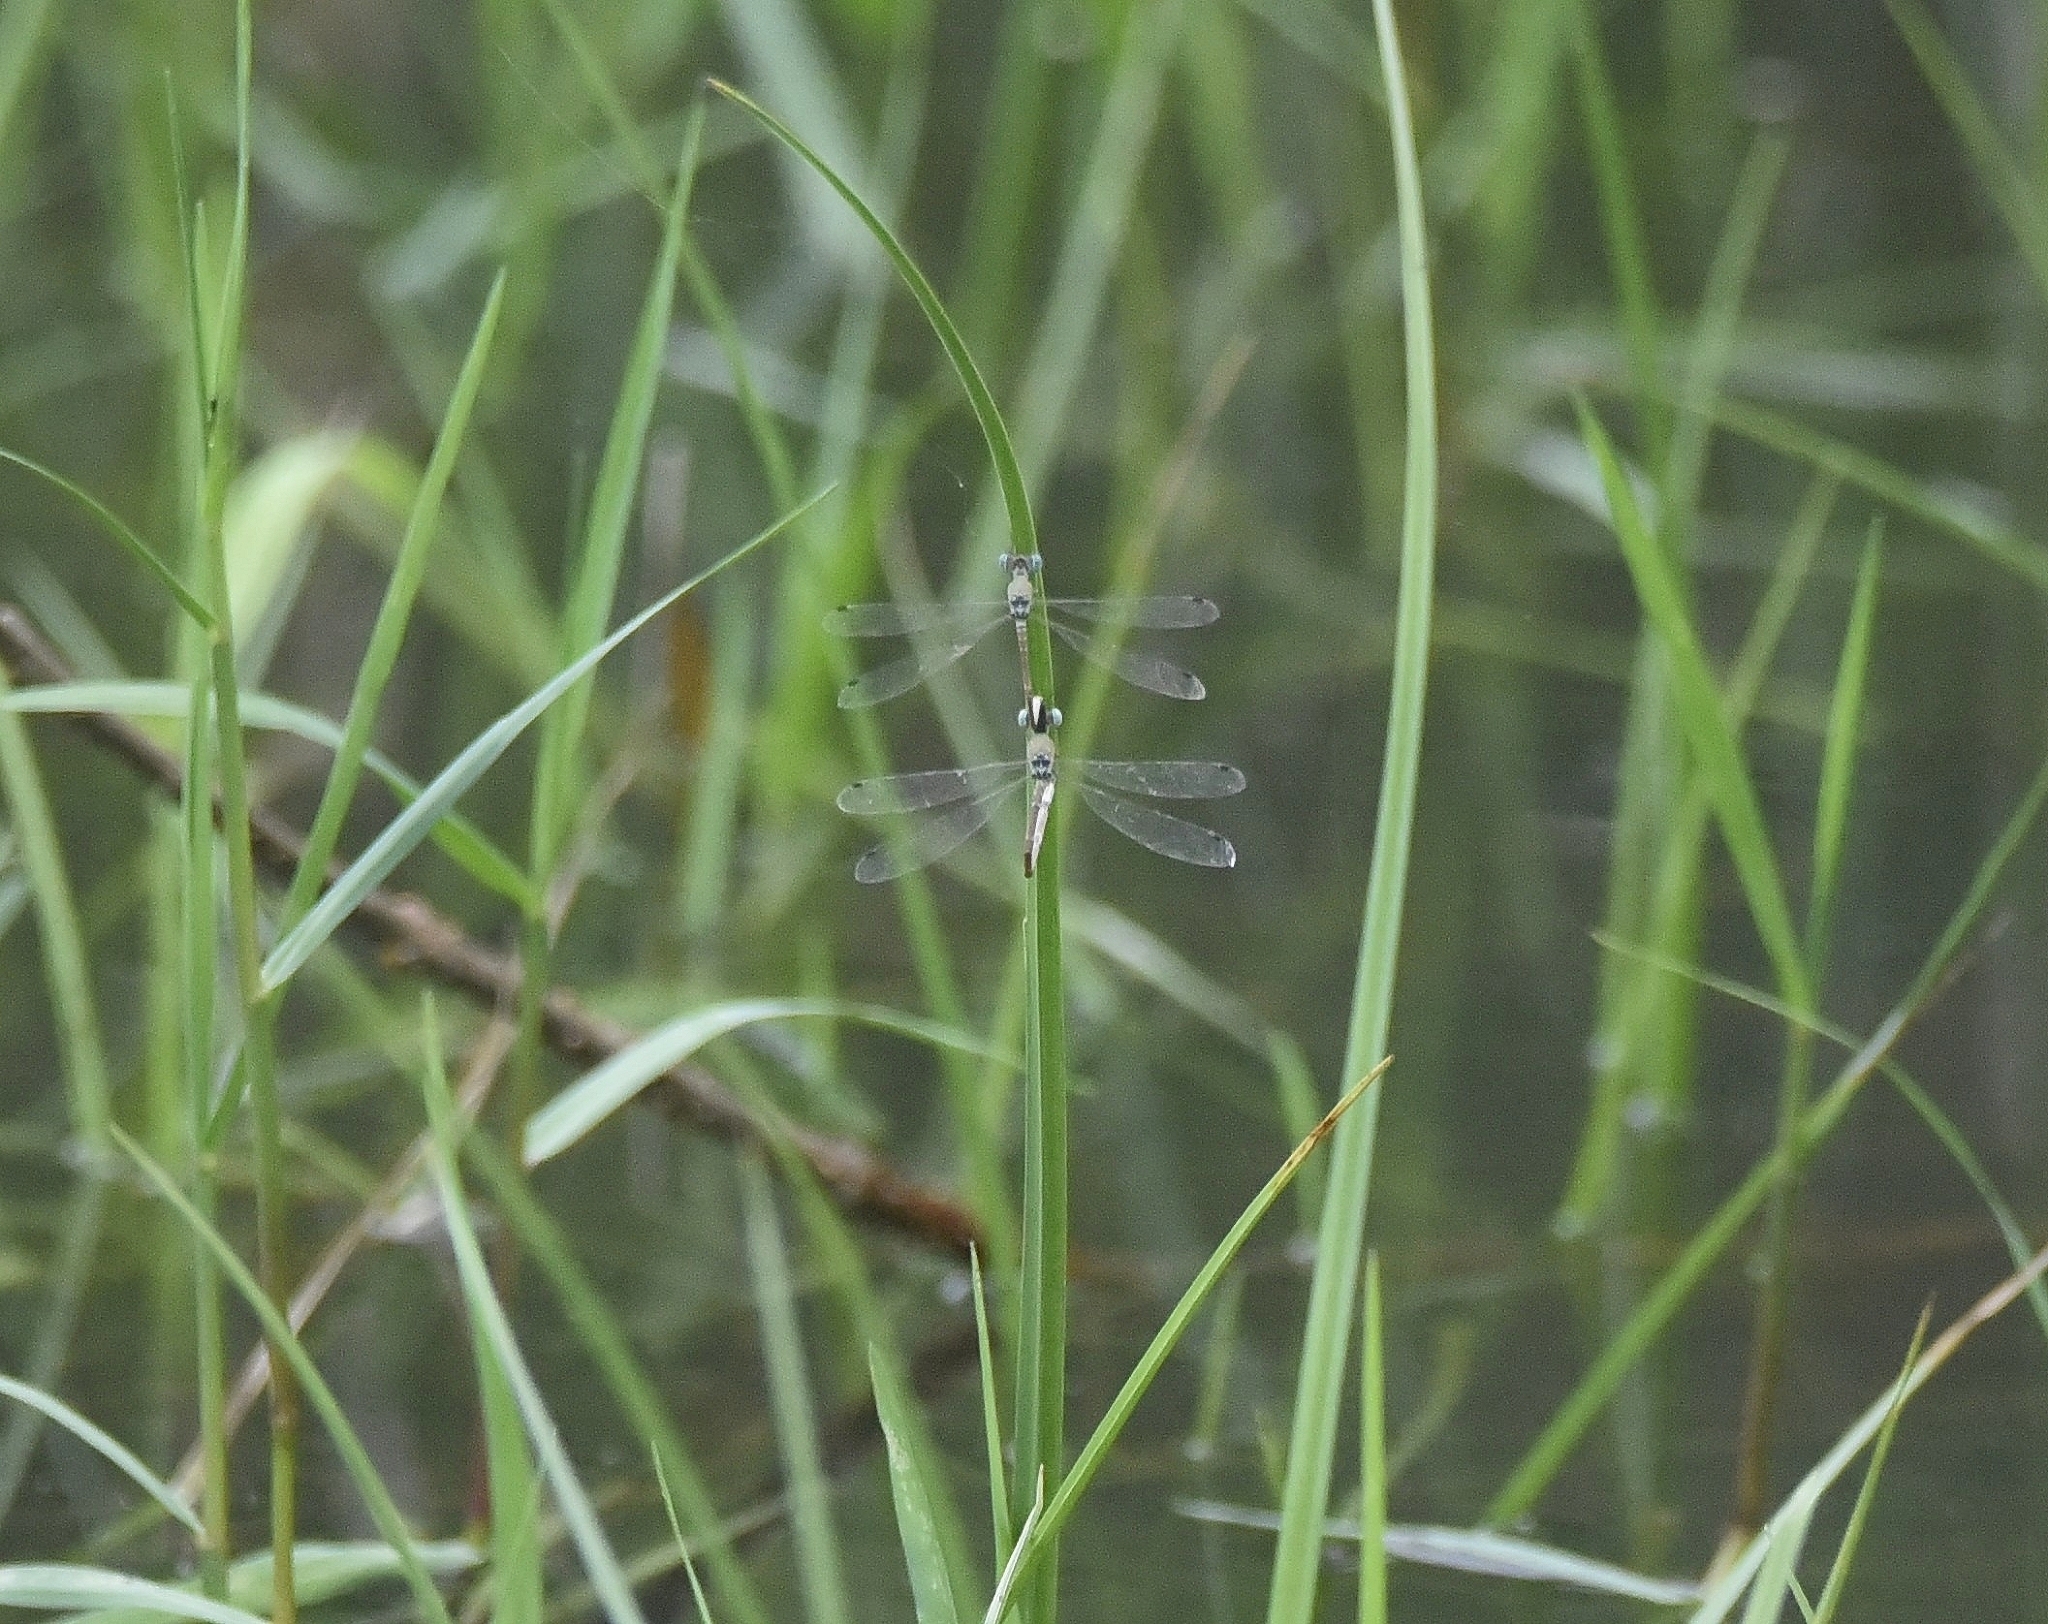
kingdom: Animalia
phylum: Arthropoda
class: Insecta
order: Odonata
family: Lestidae
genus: Platylestes
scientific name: Platylestes platystylus
